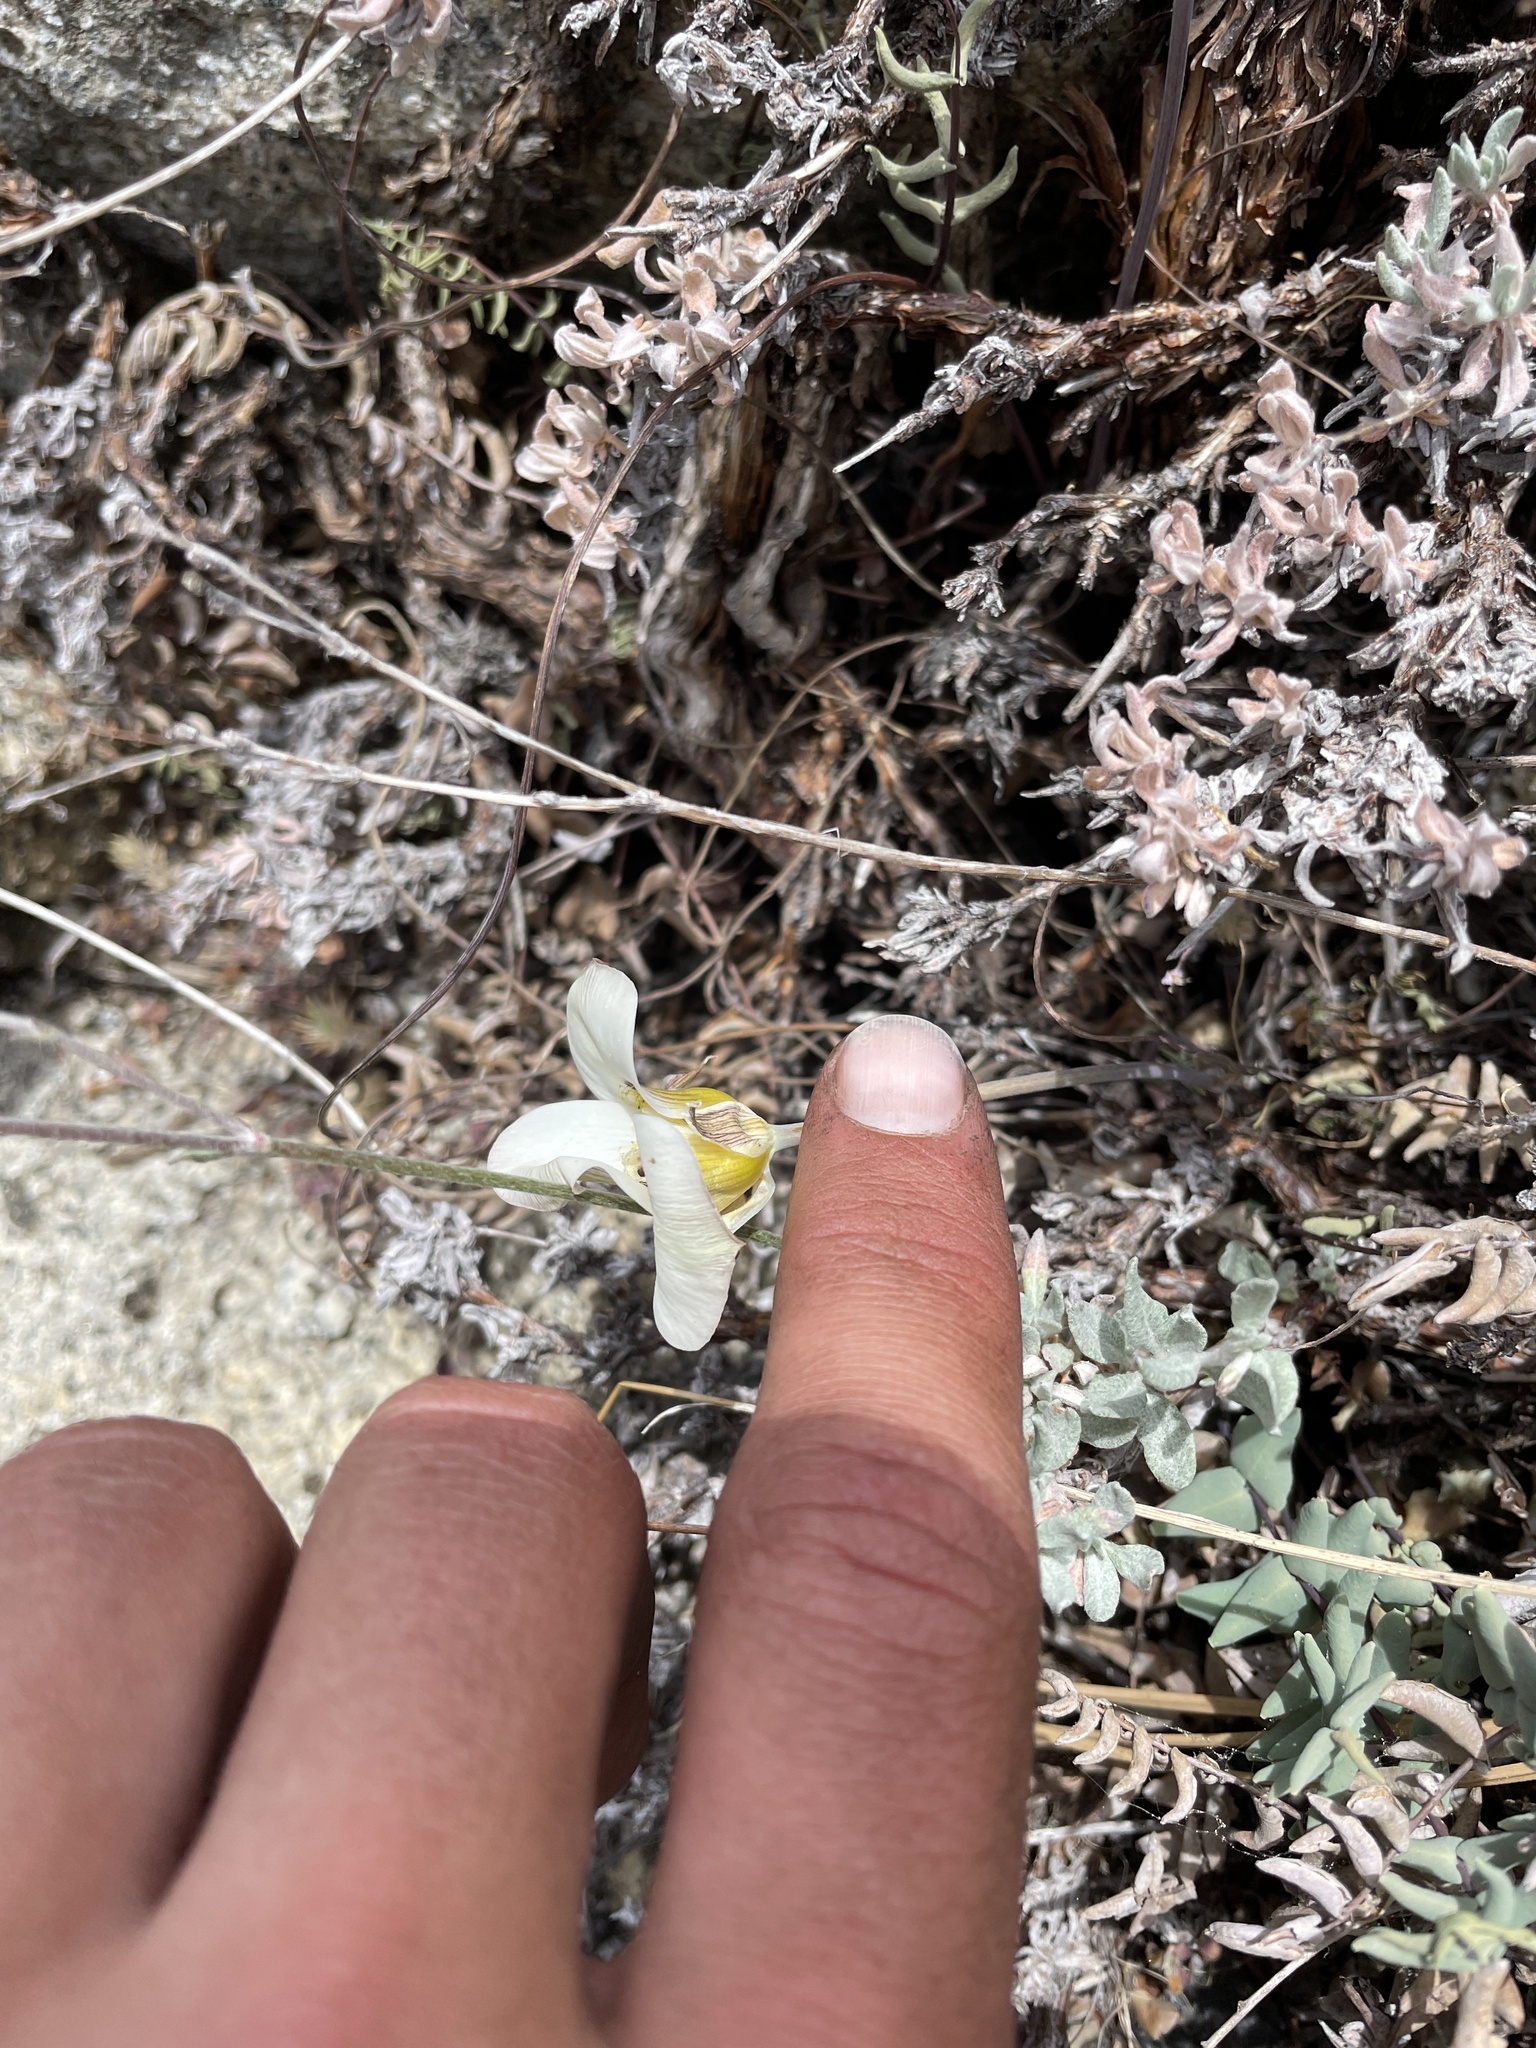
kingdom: Plantae
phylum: Tracheophyta
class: Liliopsida
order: Liliales
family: Liliaceae
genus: Calochortus
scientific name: Calochortus leichtlinii
